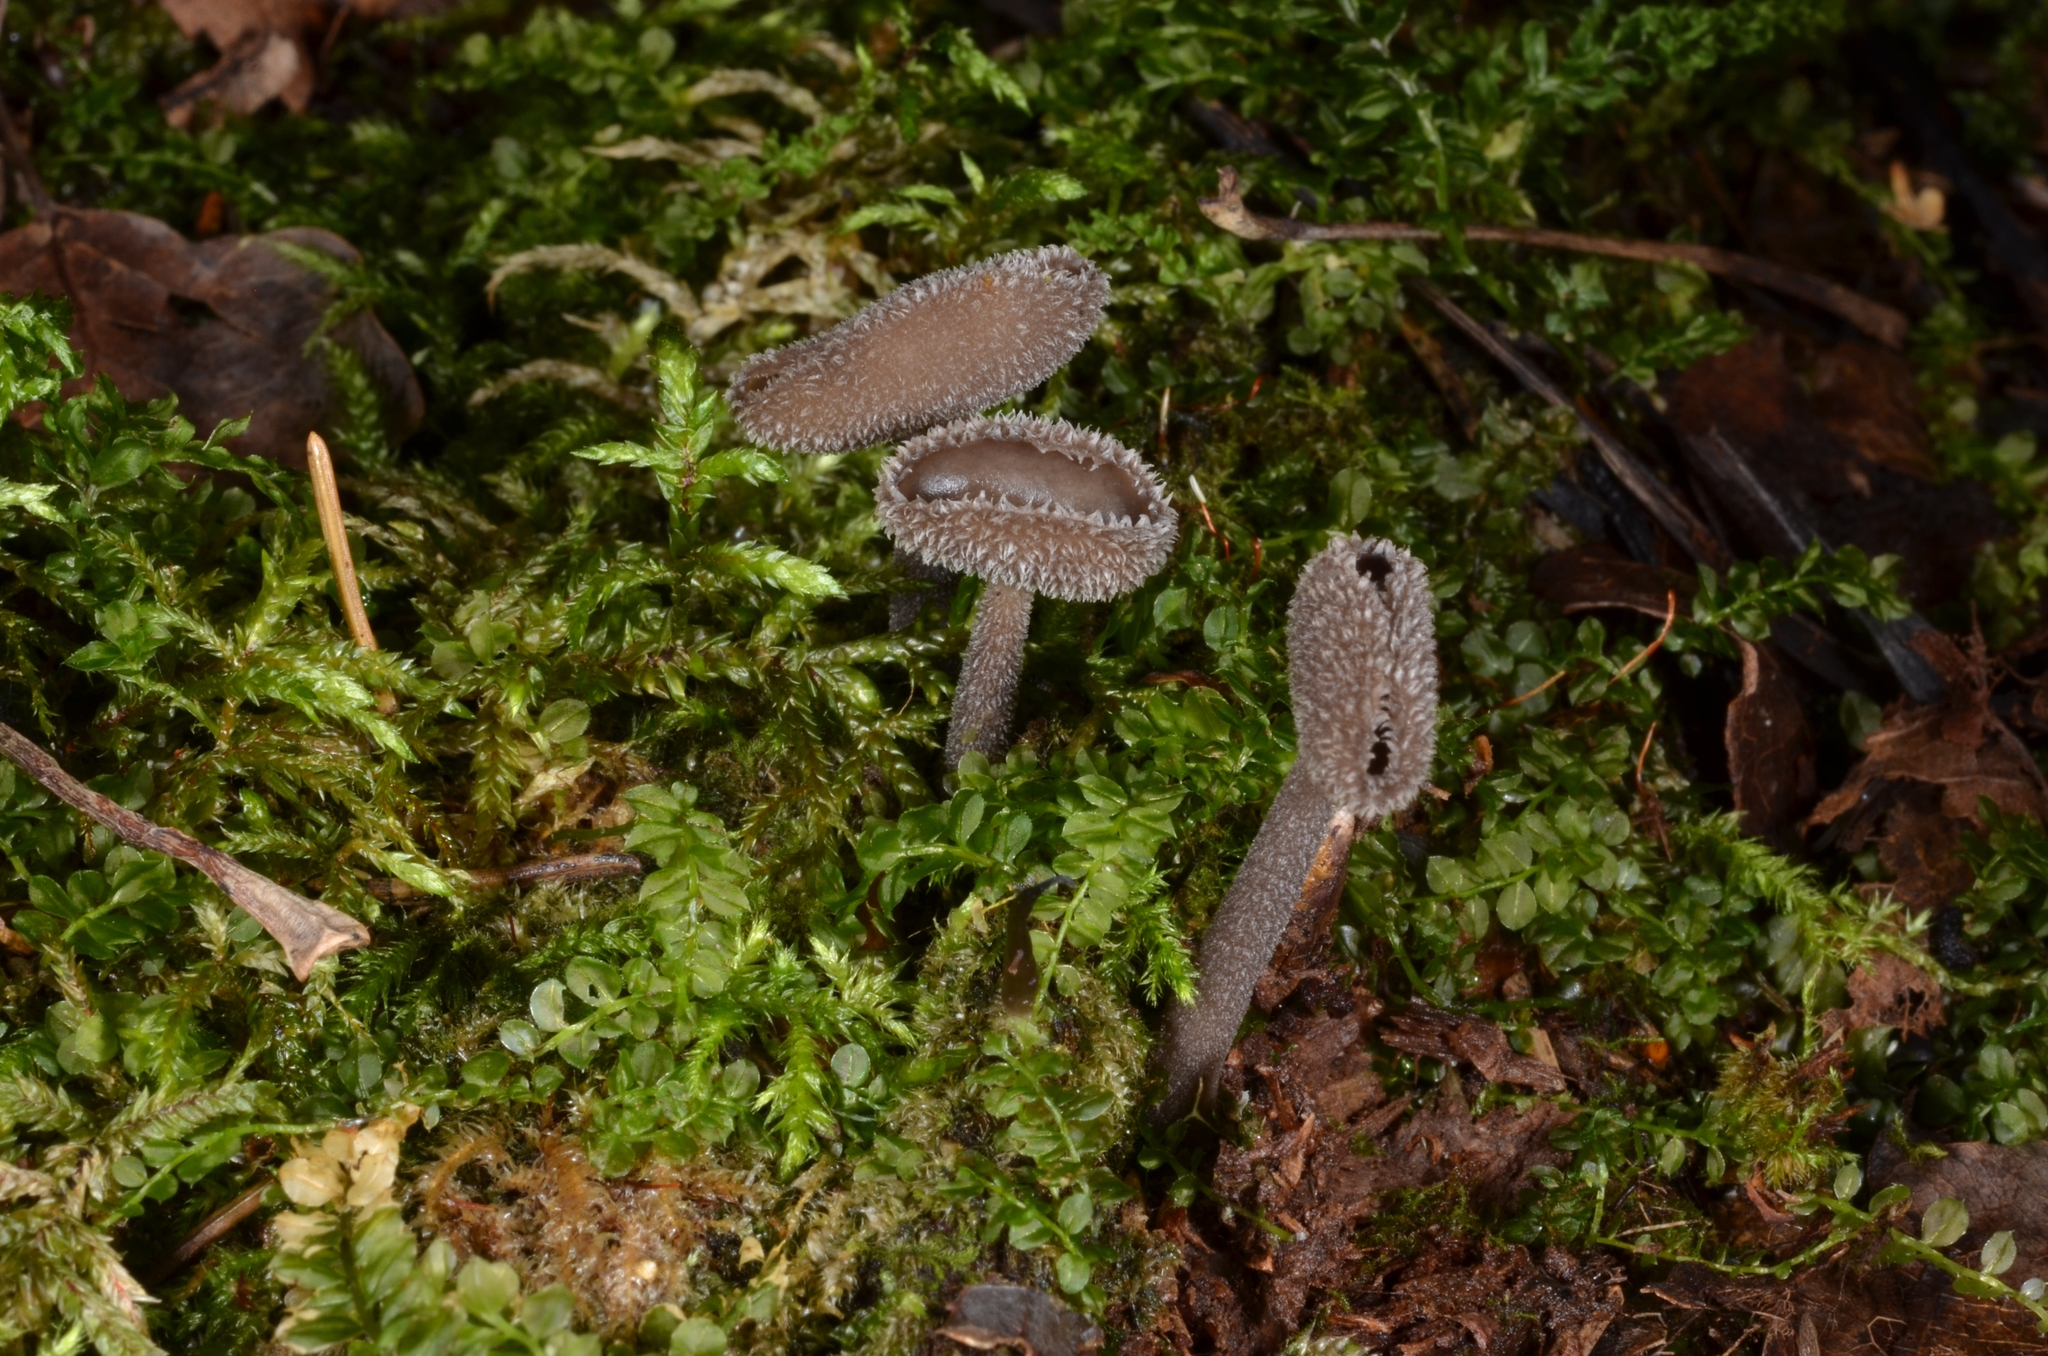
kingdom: Fungi
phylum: Ascomycota
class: Pezizomycetes
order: Pezizales
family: Helvellaceae
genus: Helvella
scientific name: Helvella macropus
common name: Felt saddle
